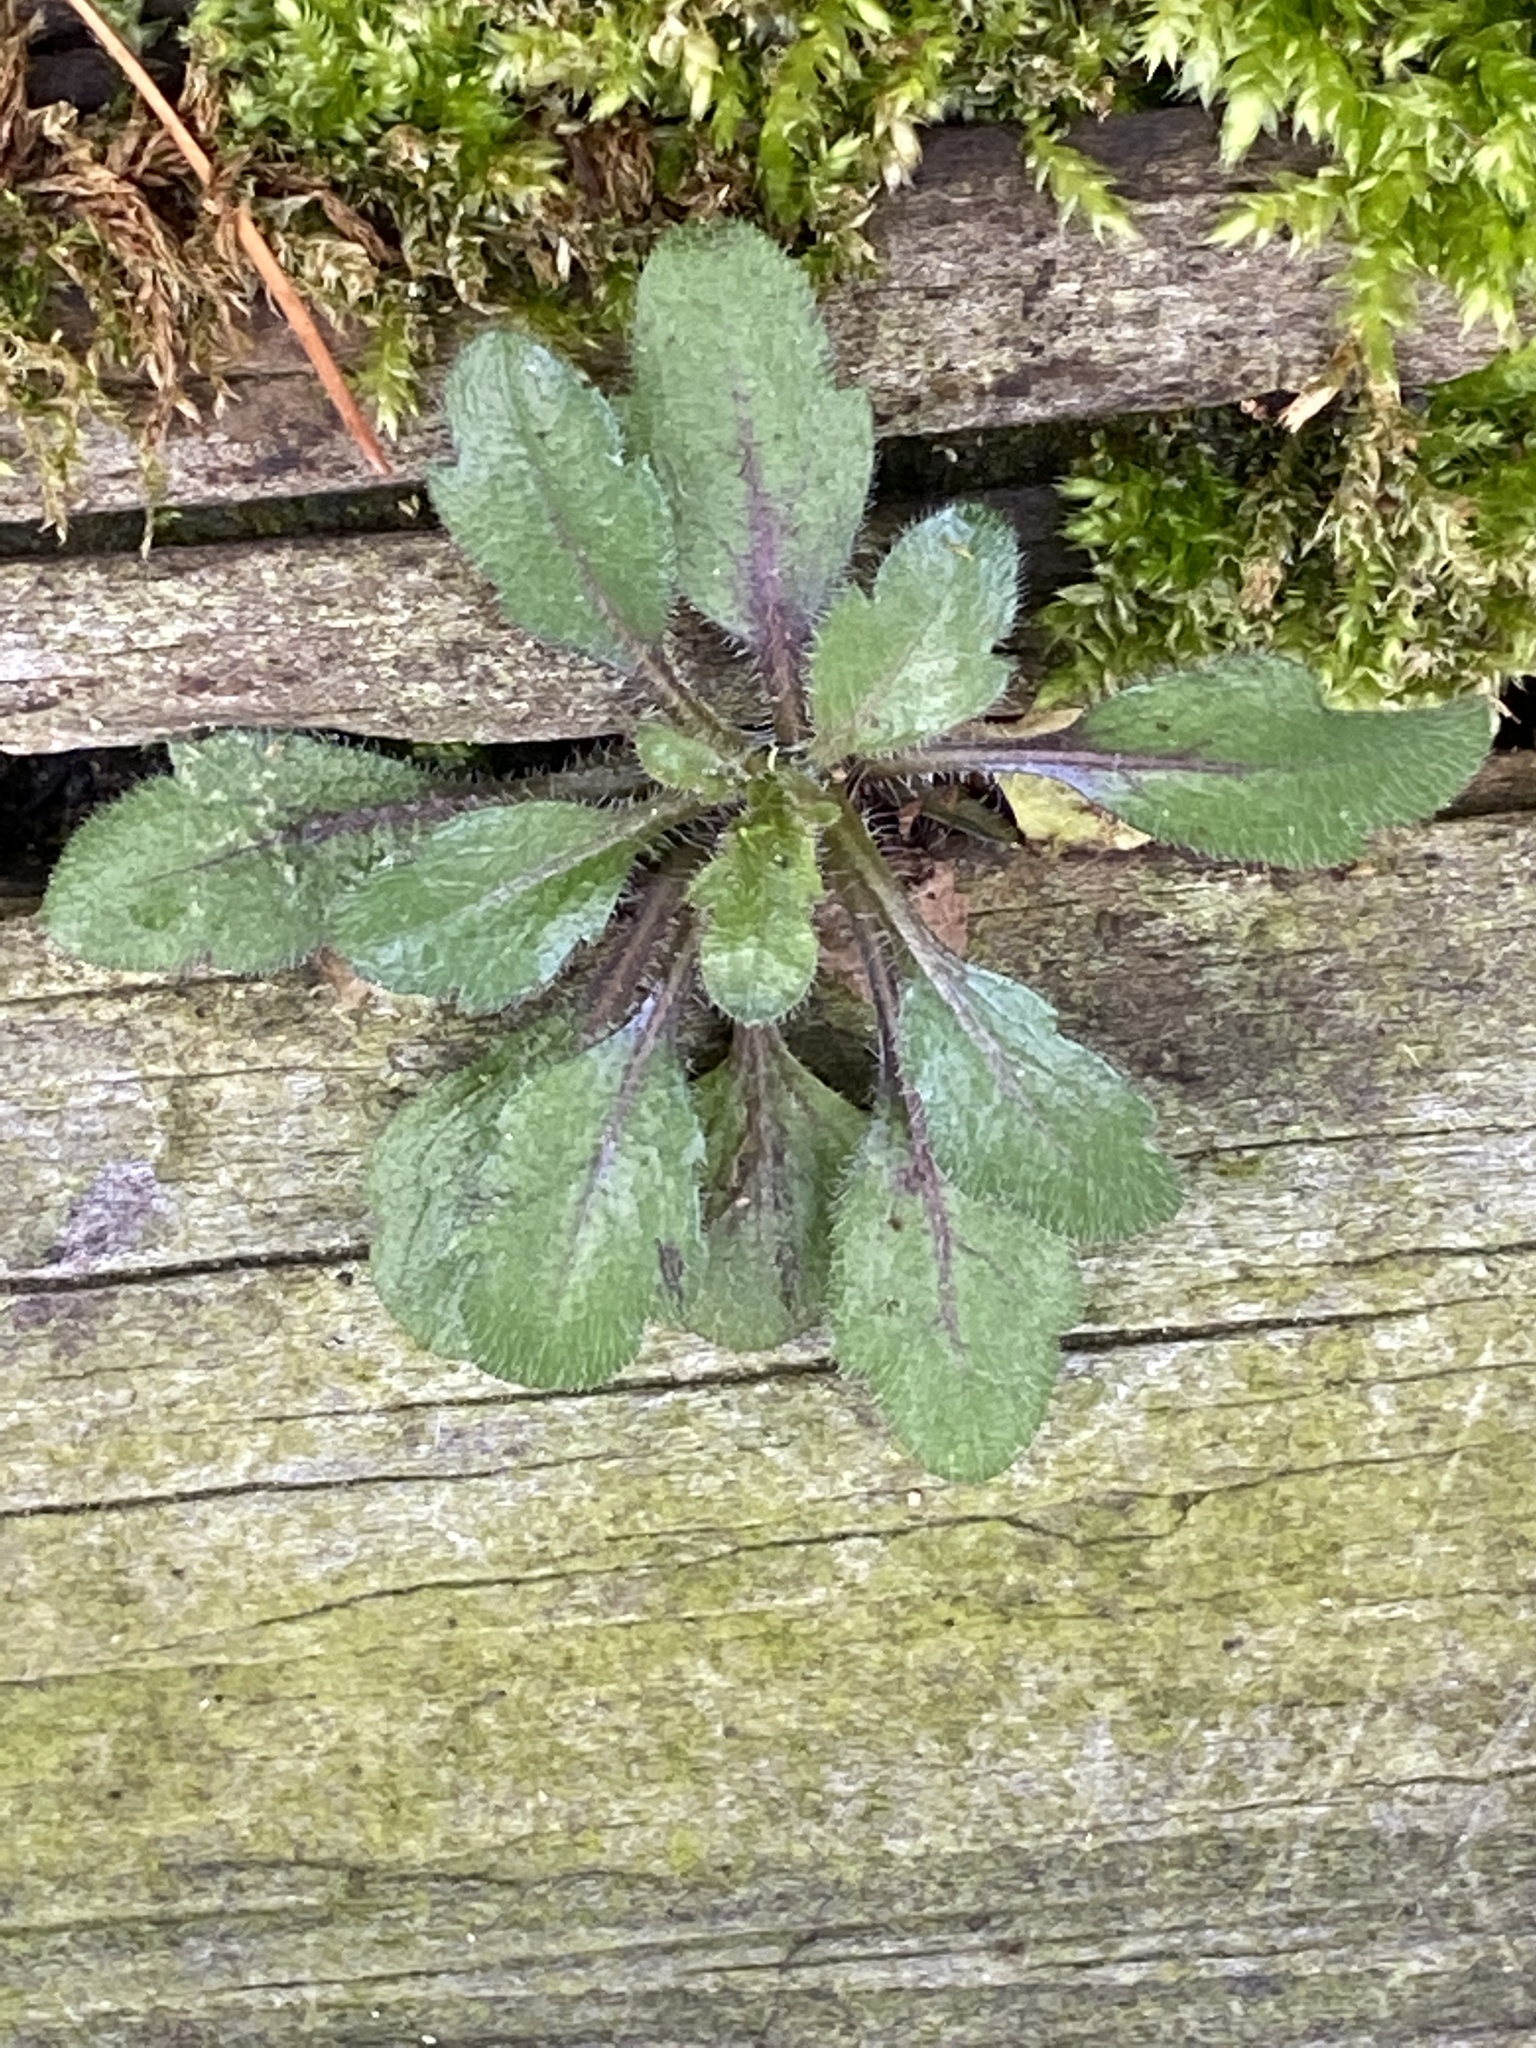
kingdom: Plantae
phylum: Tracheophyta
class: Magnoliopsida
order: Asterales
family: Asteraceae
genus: Erigeron
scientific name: Erigeron canadensis
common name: Canadian fleabane
